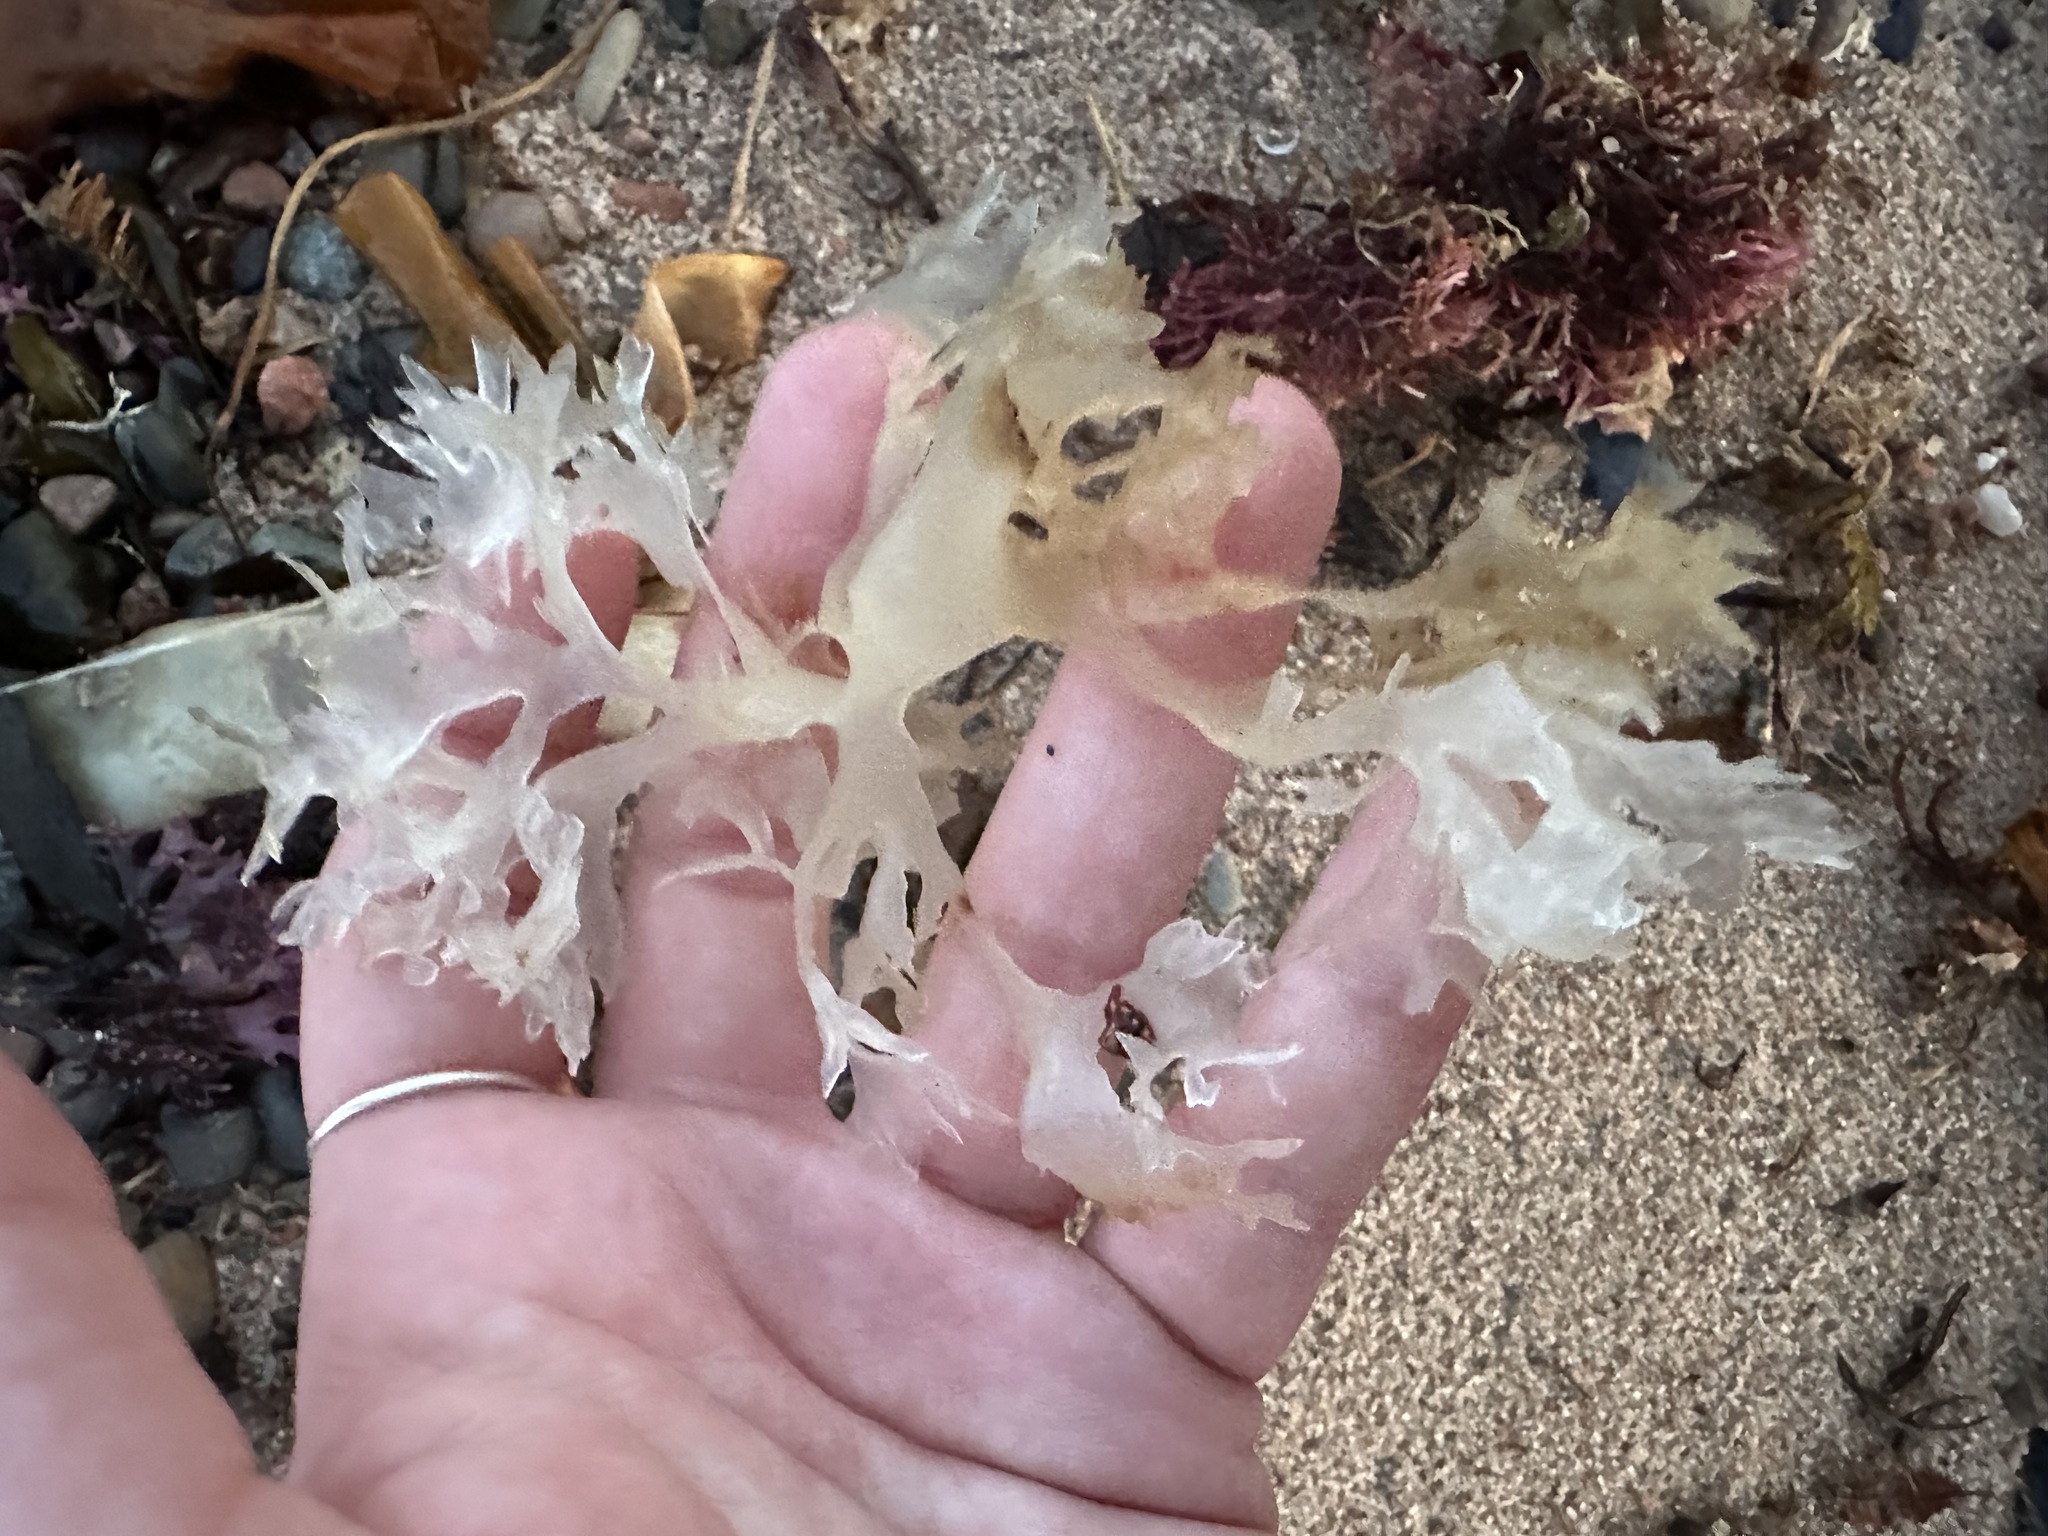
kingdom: Plantae
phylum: Rhodophyta
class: Florideophyceae
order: Gigartinales
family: Gigartinaceae
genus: Chondrus
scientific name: Chondrus crispus
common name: Carrageen
